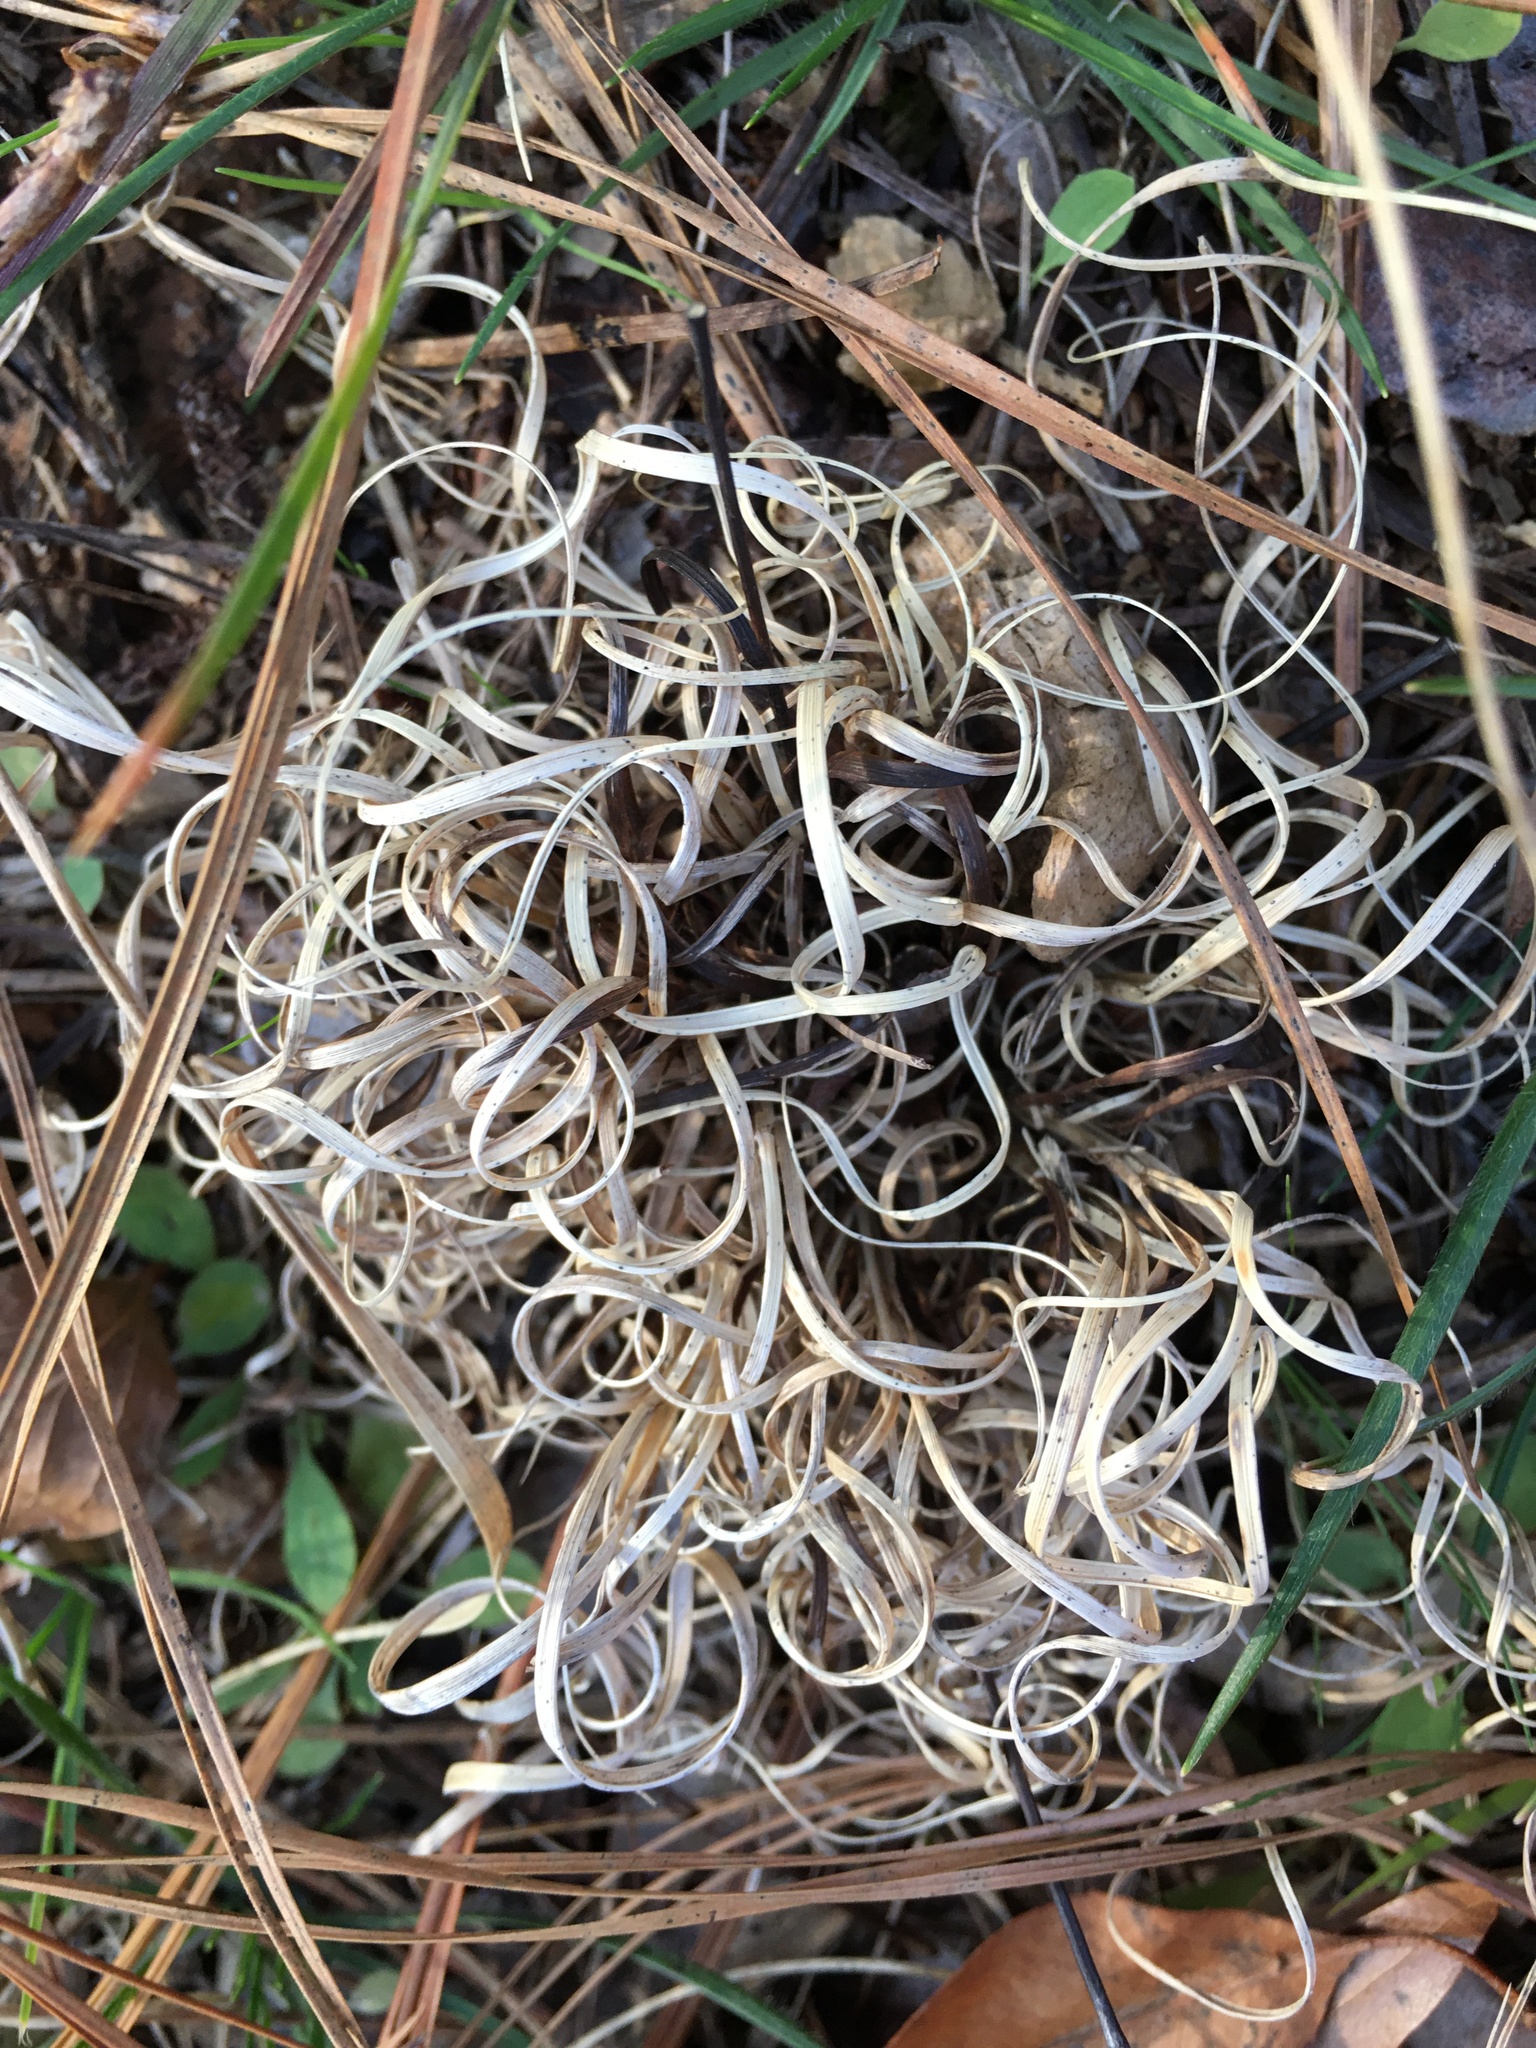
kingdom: Plantae
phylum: Tracheophyta
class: Liliopsida
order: Poales
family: Poaceae
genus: Danthonia
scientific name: Danthonia spicata
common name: Common wild oatgrass
